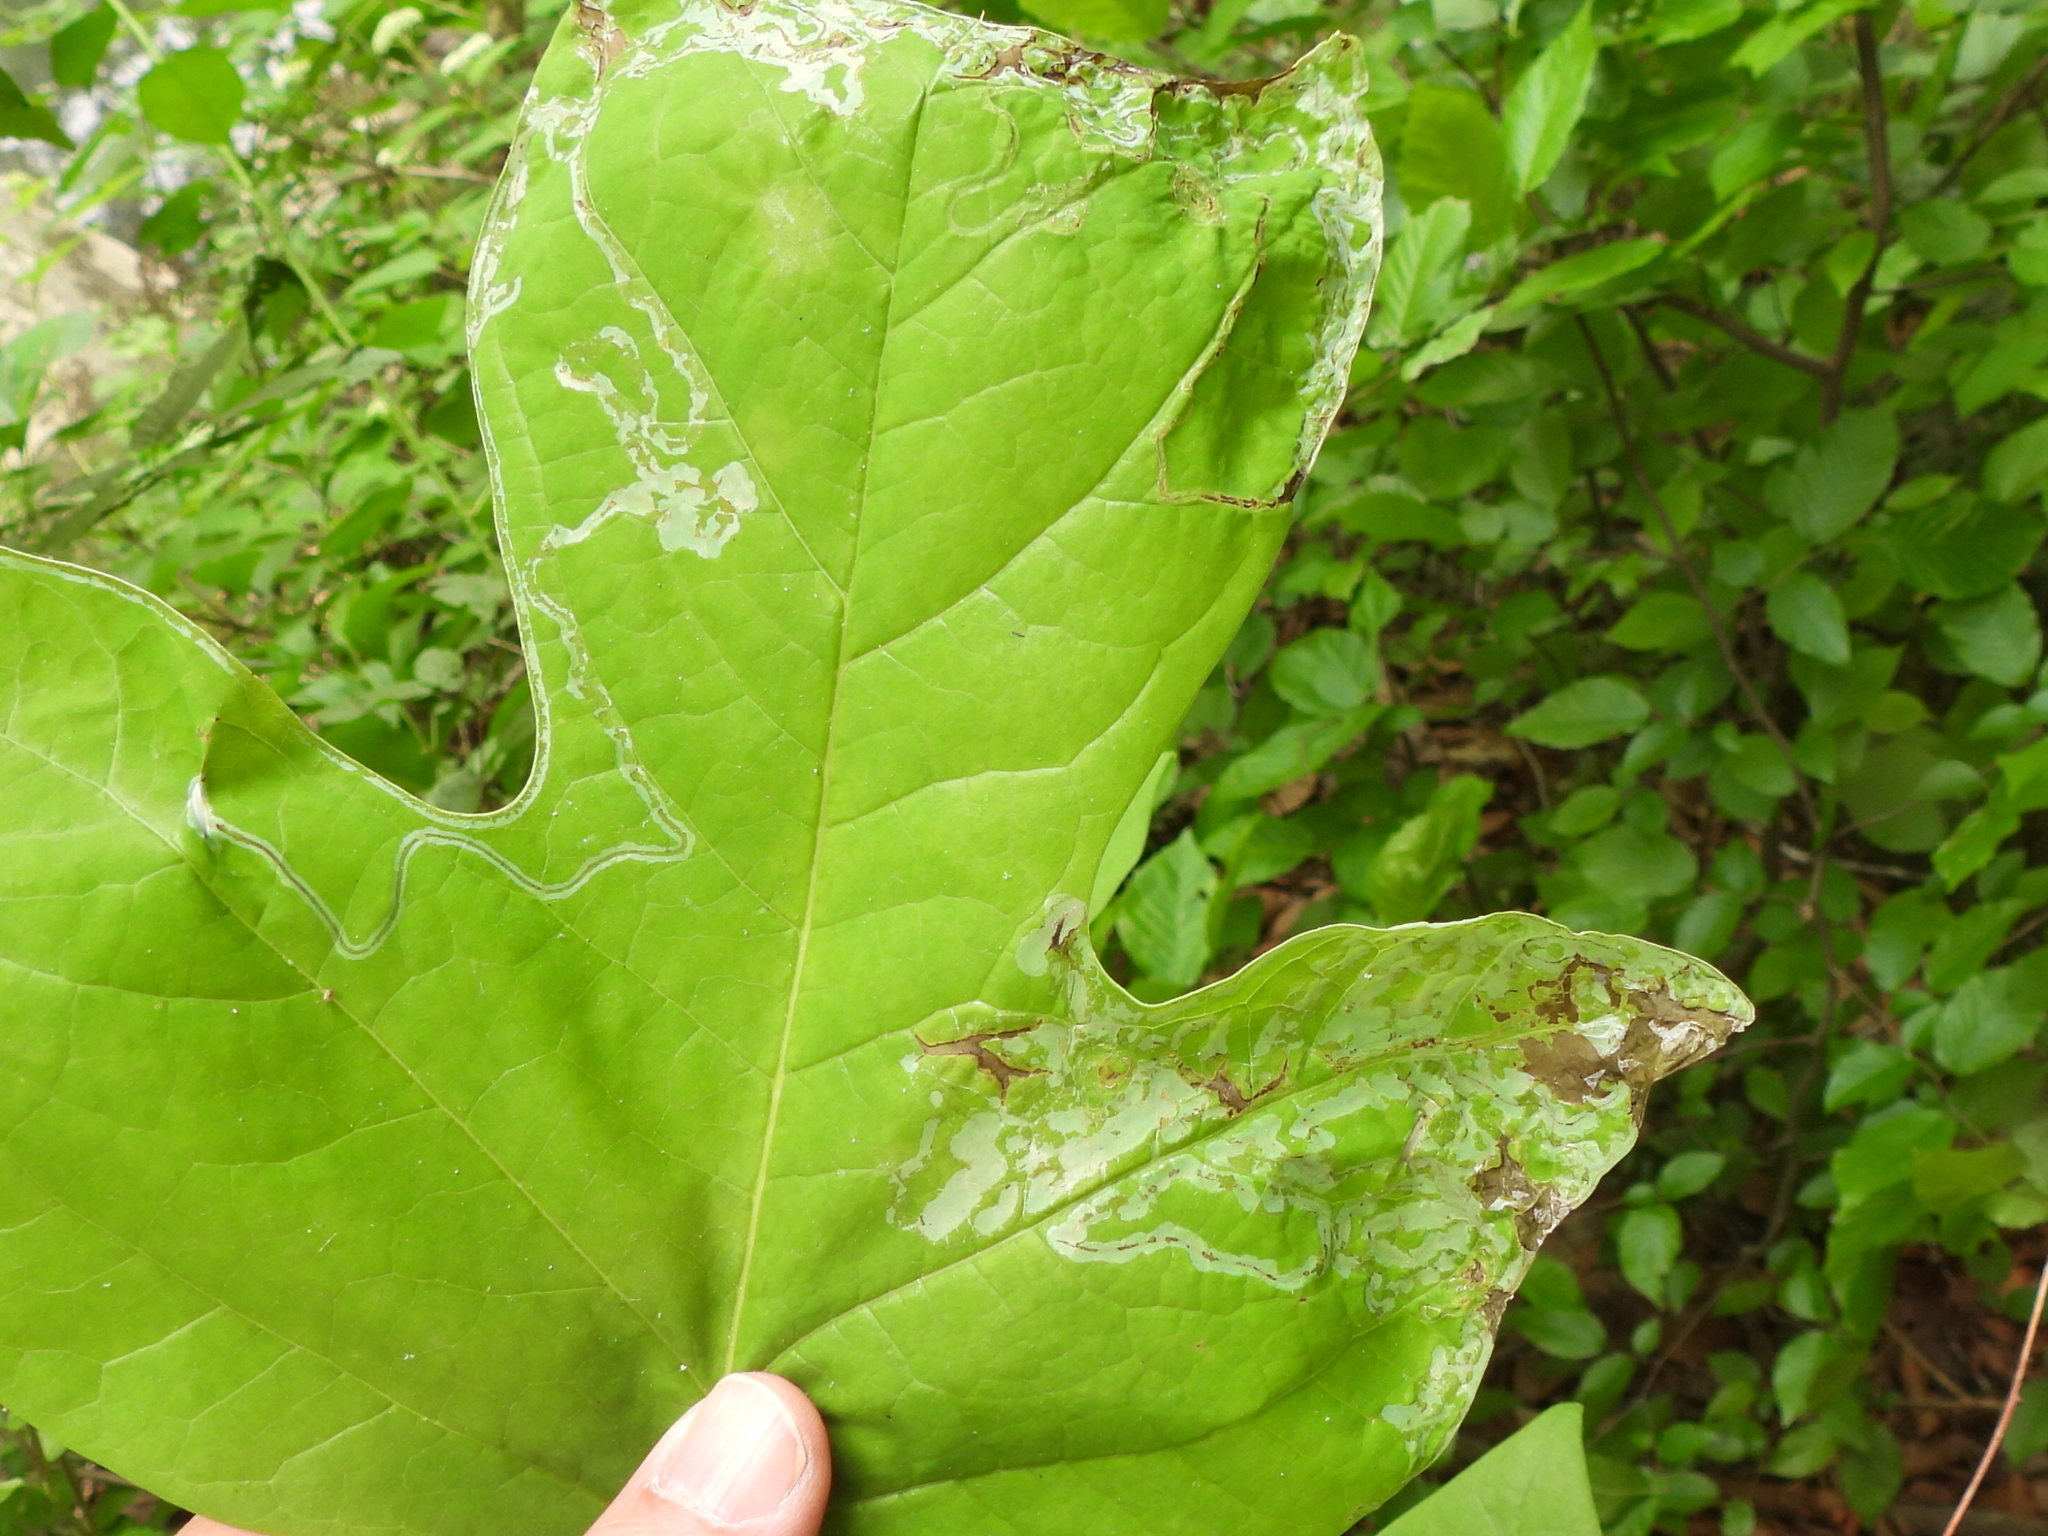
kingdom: Animalia
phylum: Arthropoda
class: Insecta
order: Lepidoptera
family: Gracillariidae
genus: Phyllocnistis
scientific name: Phyllocnistis liriodendronella
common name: Tulip tree leaf miner
